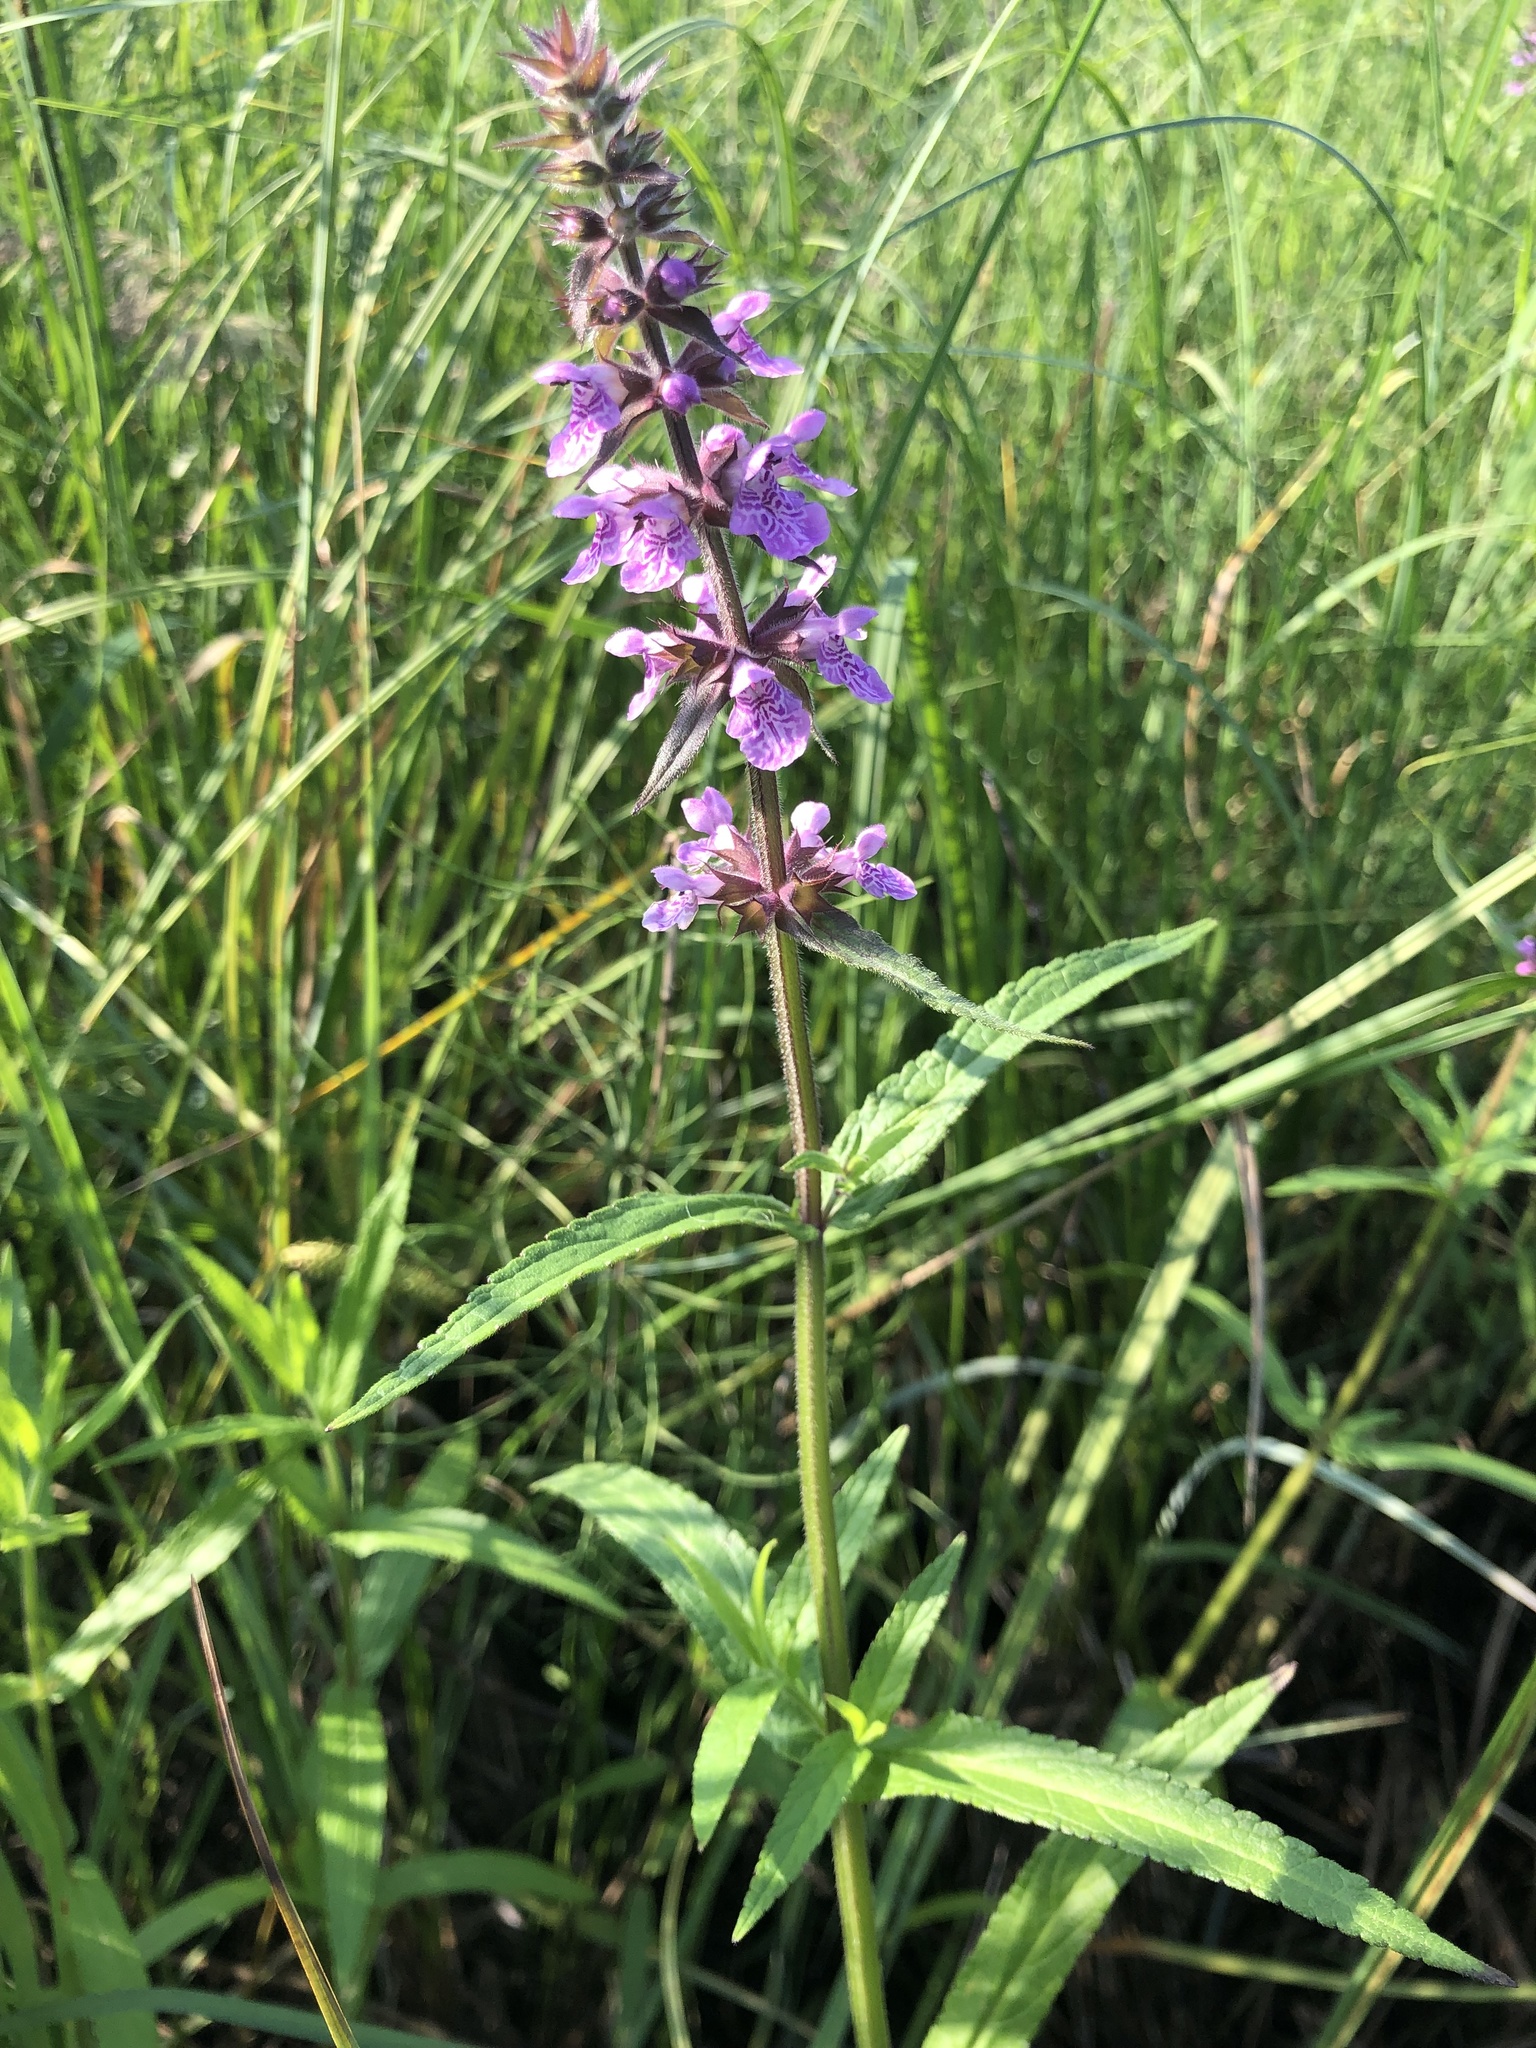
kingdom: Plantae
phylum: Tracheophyta
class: Magnoliopsida
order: Lamiales
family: Lamiaceae
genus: Stachys
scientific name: Stachys palustris
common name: Marsh woundwort
